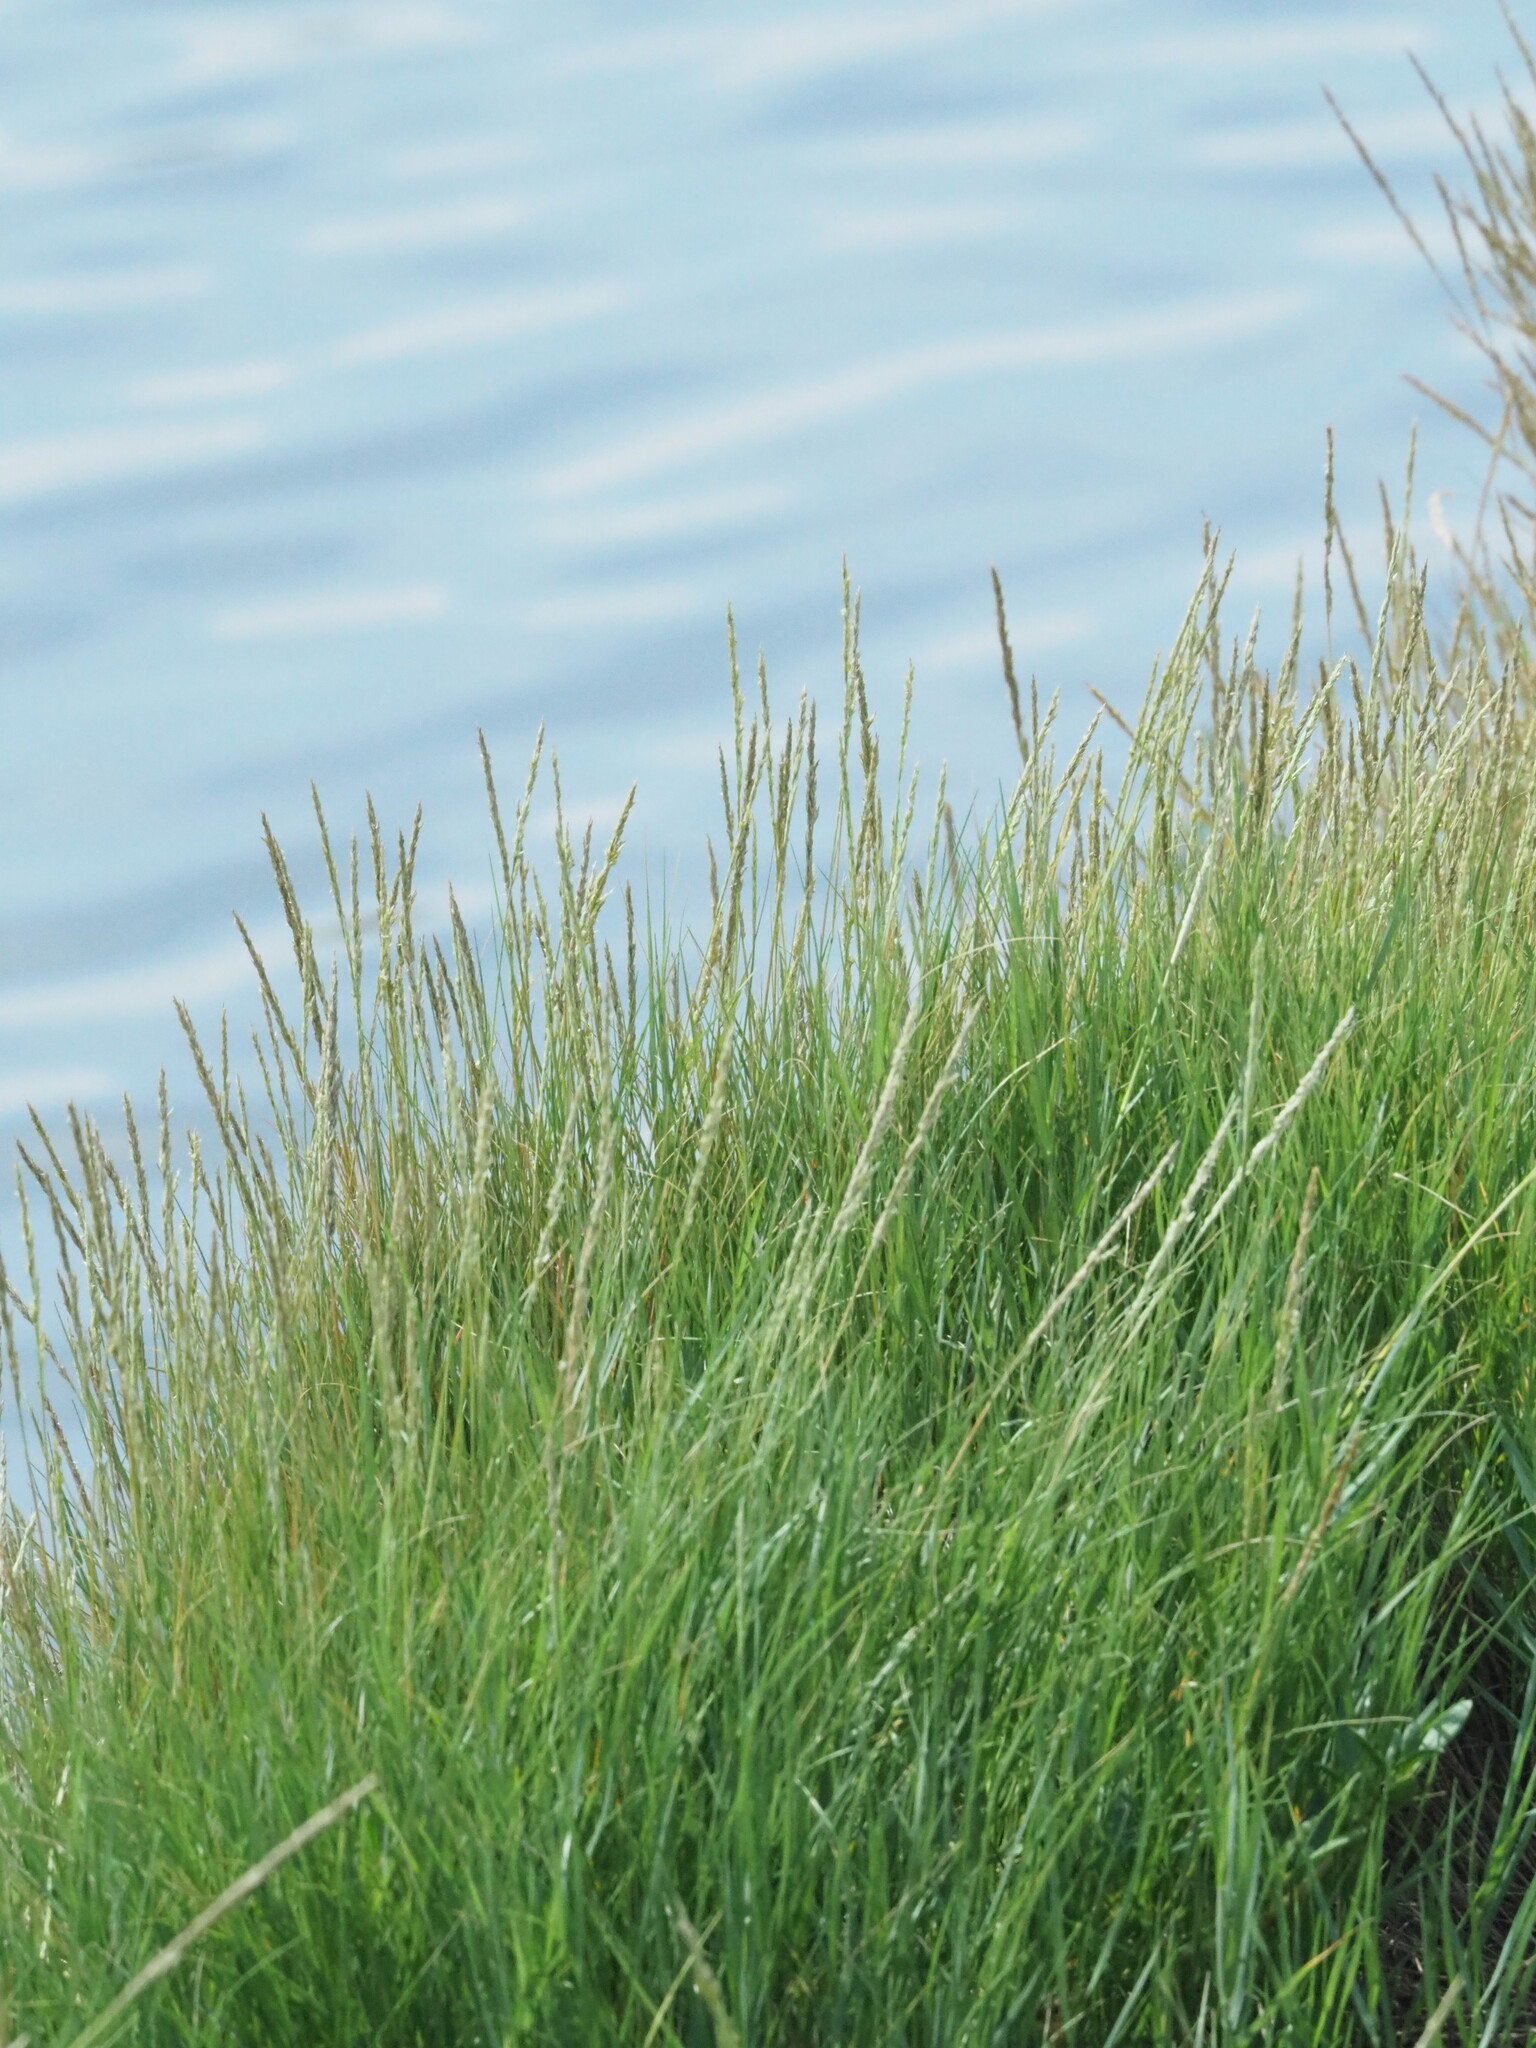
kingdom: Plantae
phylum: Tracheophyta
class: Liliopsida
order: Poales
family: Poaceae
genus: Sporobolus
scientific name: Sporobolus virginicus
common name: Beach dropseed
